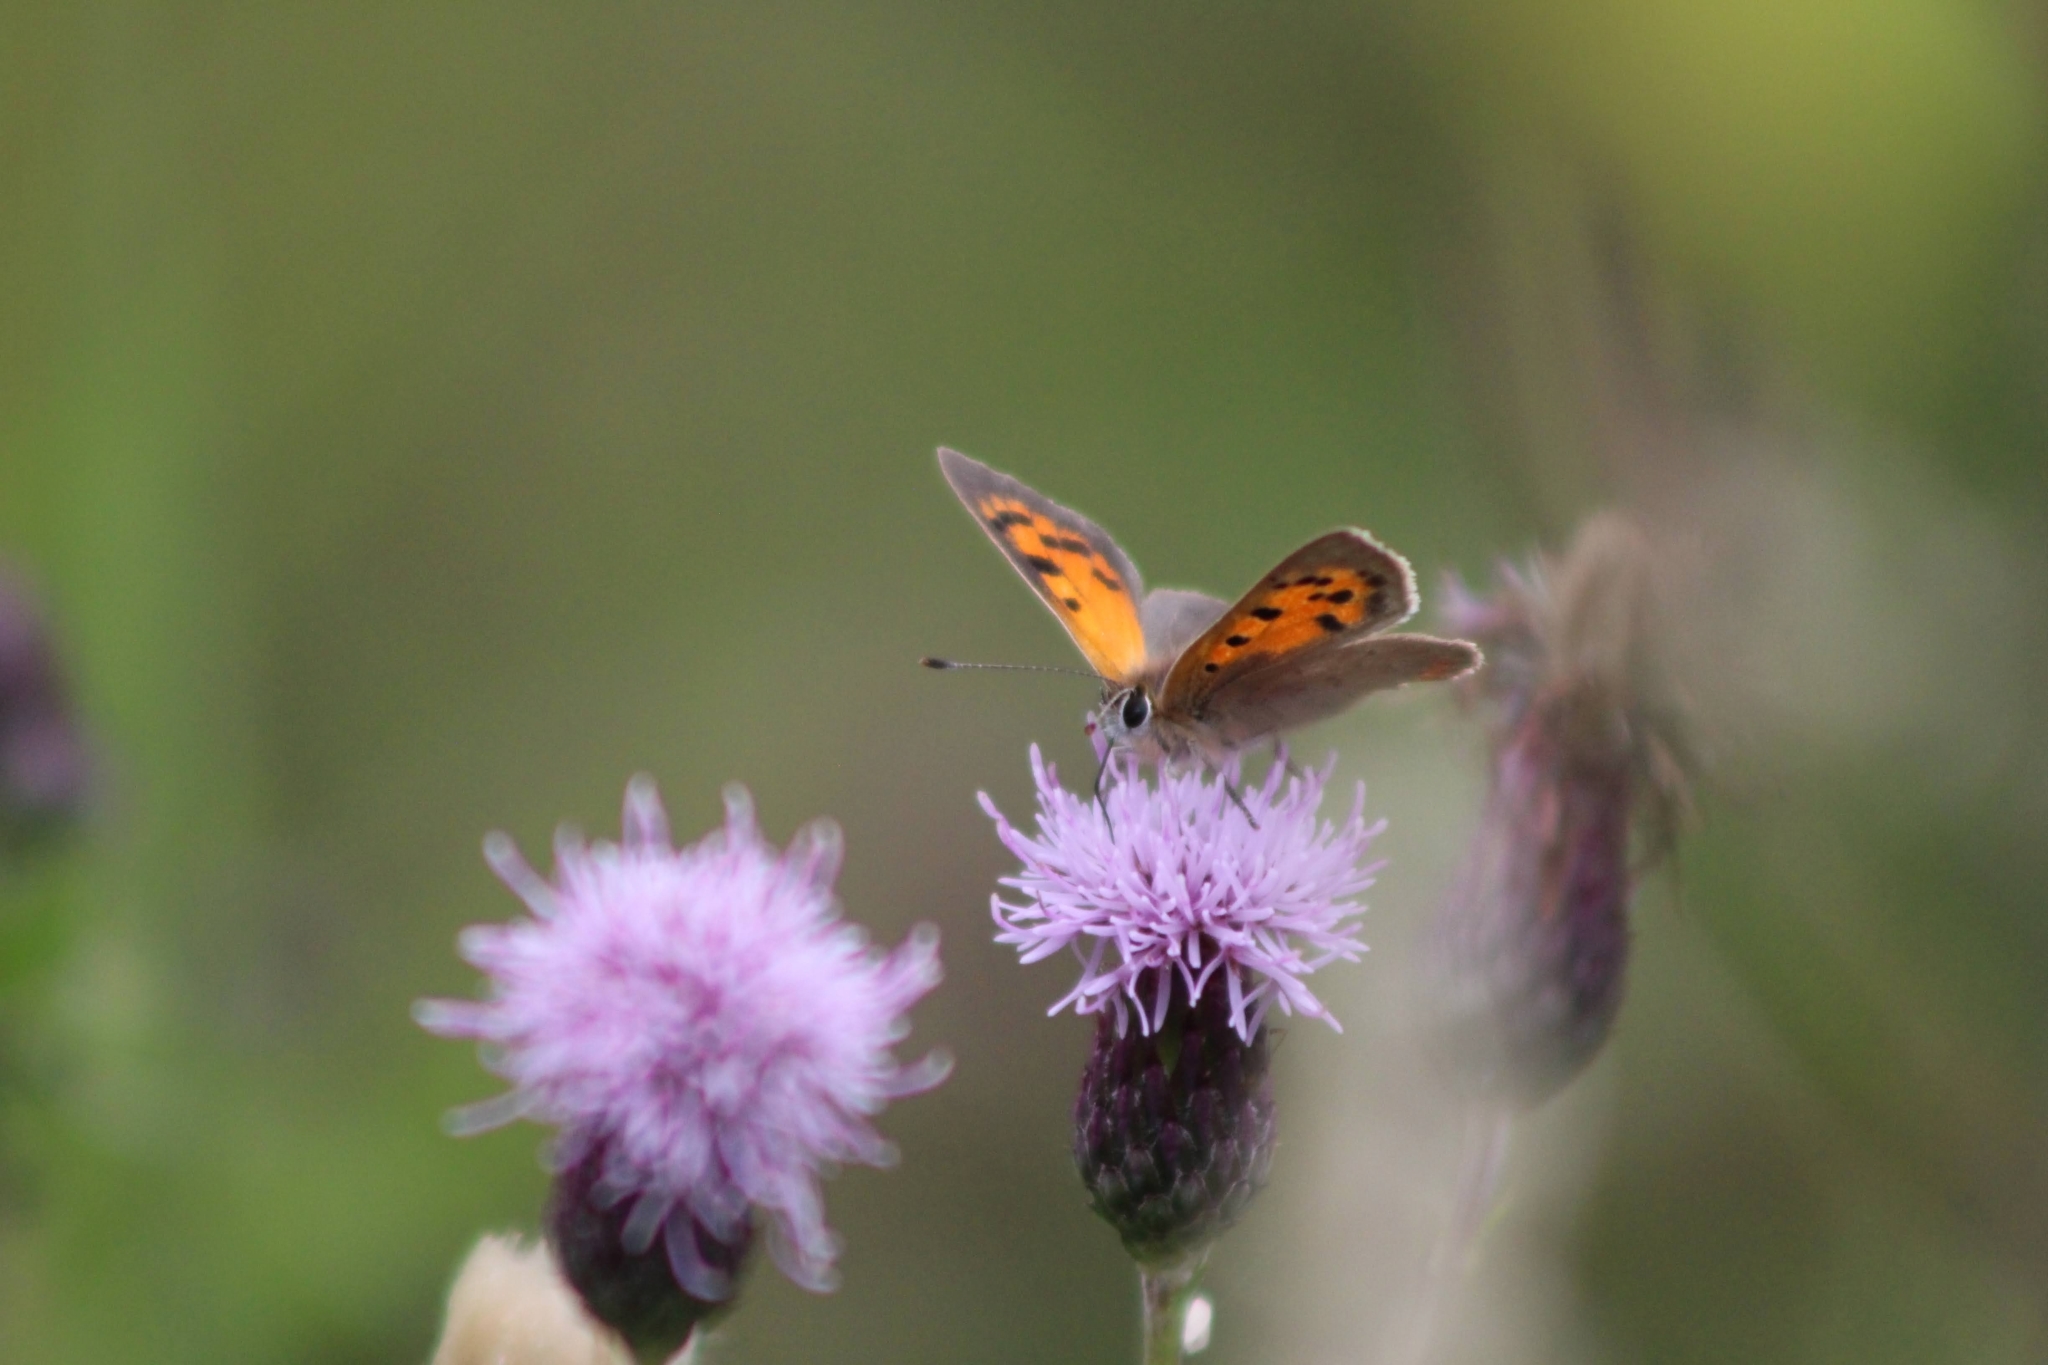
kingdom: Animalia
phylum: Arthropoda
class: Insecta
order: Lepidoptera
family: Lycaenidae
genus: Lycaena
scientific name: Lycaena phlaeas
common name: Small copper
